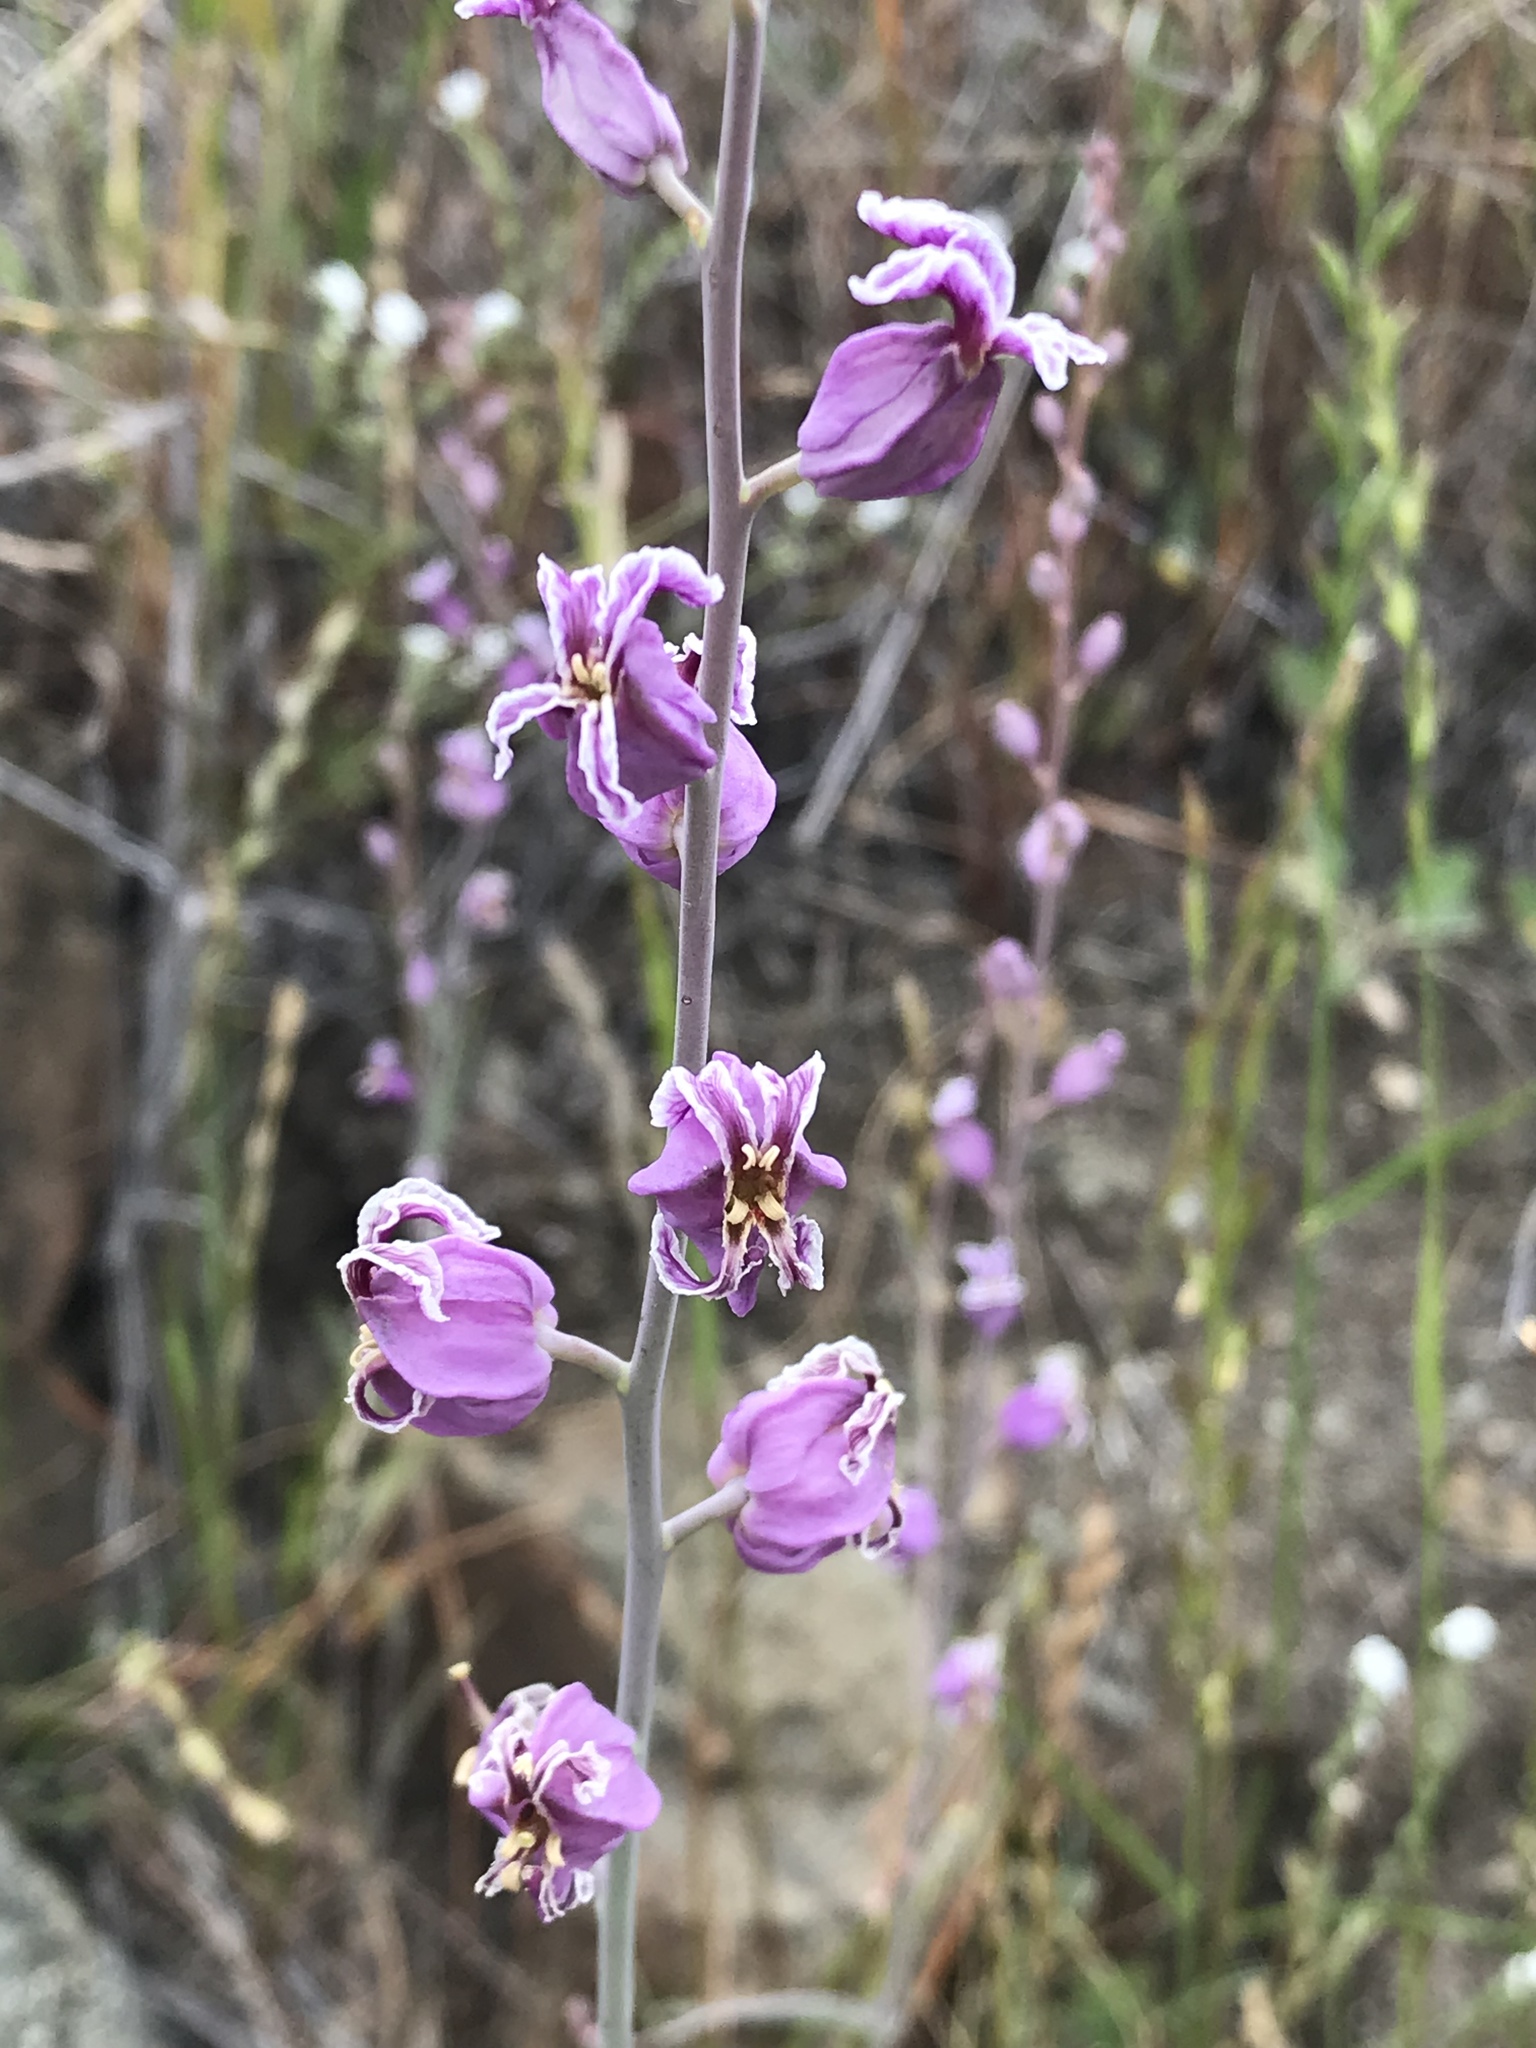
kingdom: Plantae
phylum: Tracheophyta
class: Magnoliopsida
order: Brassicales
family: Brassicaceae
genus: Streptanthus
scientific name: Streptanthus glandulosus
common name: Jewel-flower
